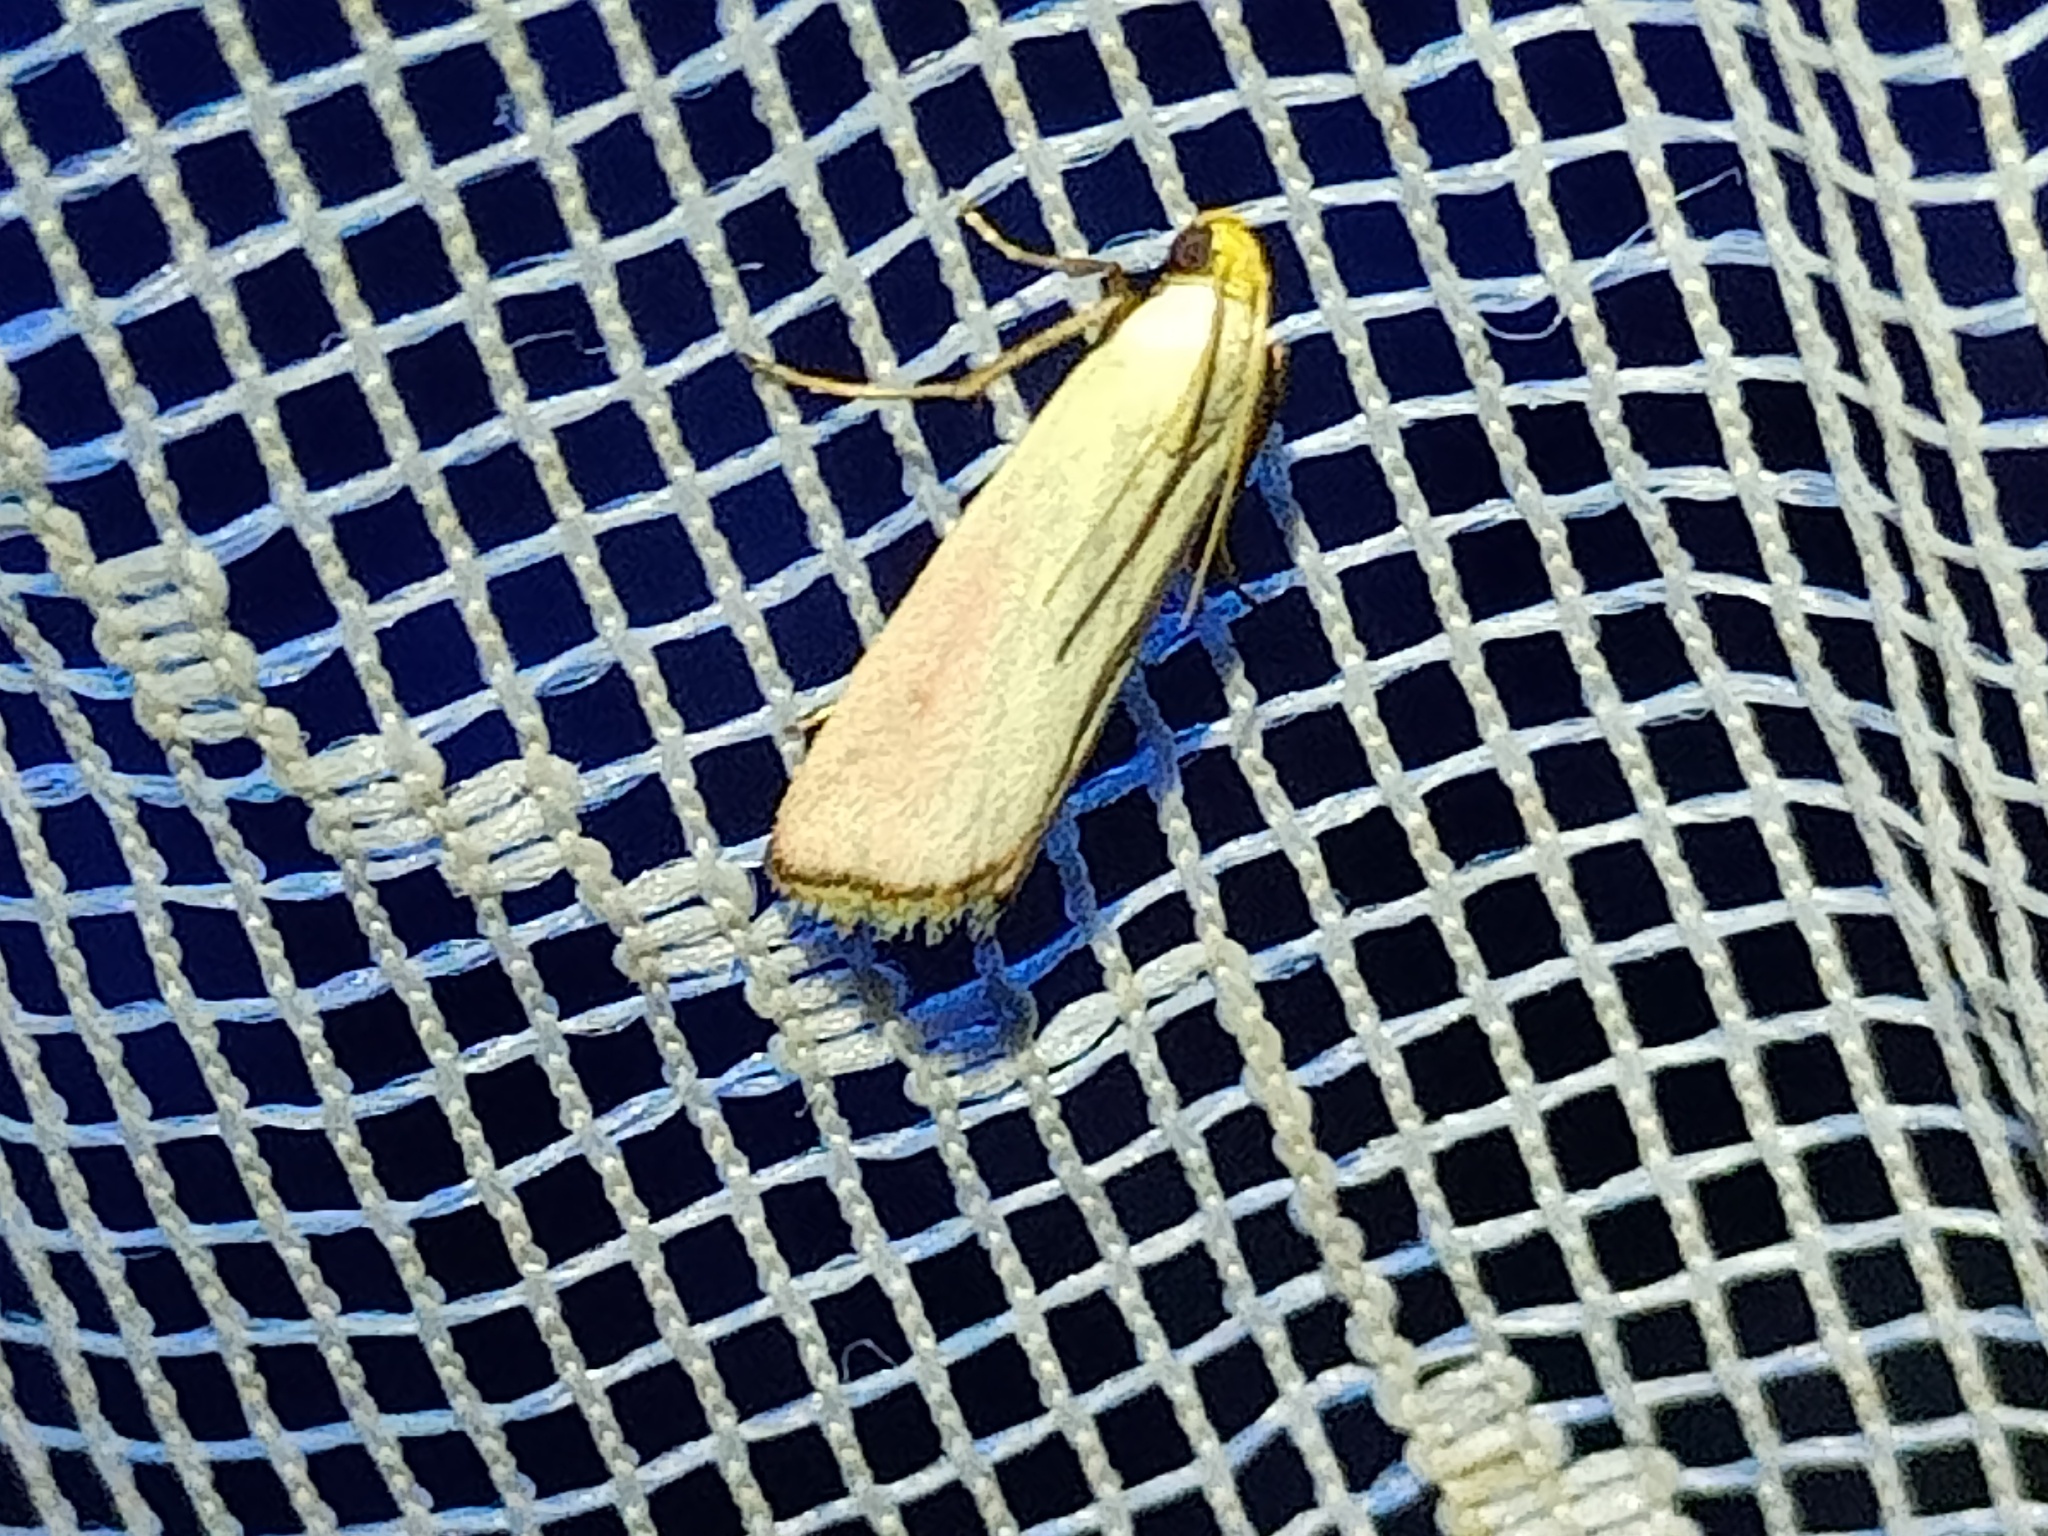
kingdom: Animalia
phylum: Arthropoda
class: Insecta
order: Lepidoptera
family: Pyralidae
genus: Eurhodope
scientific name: Eurhodope rosella
